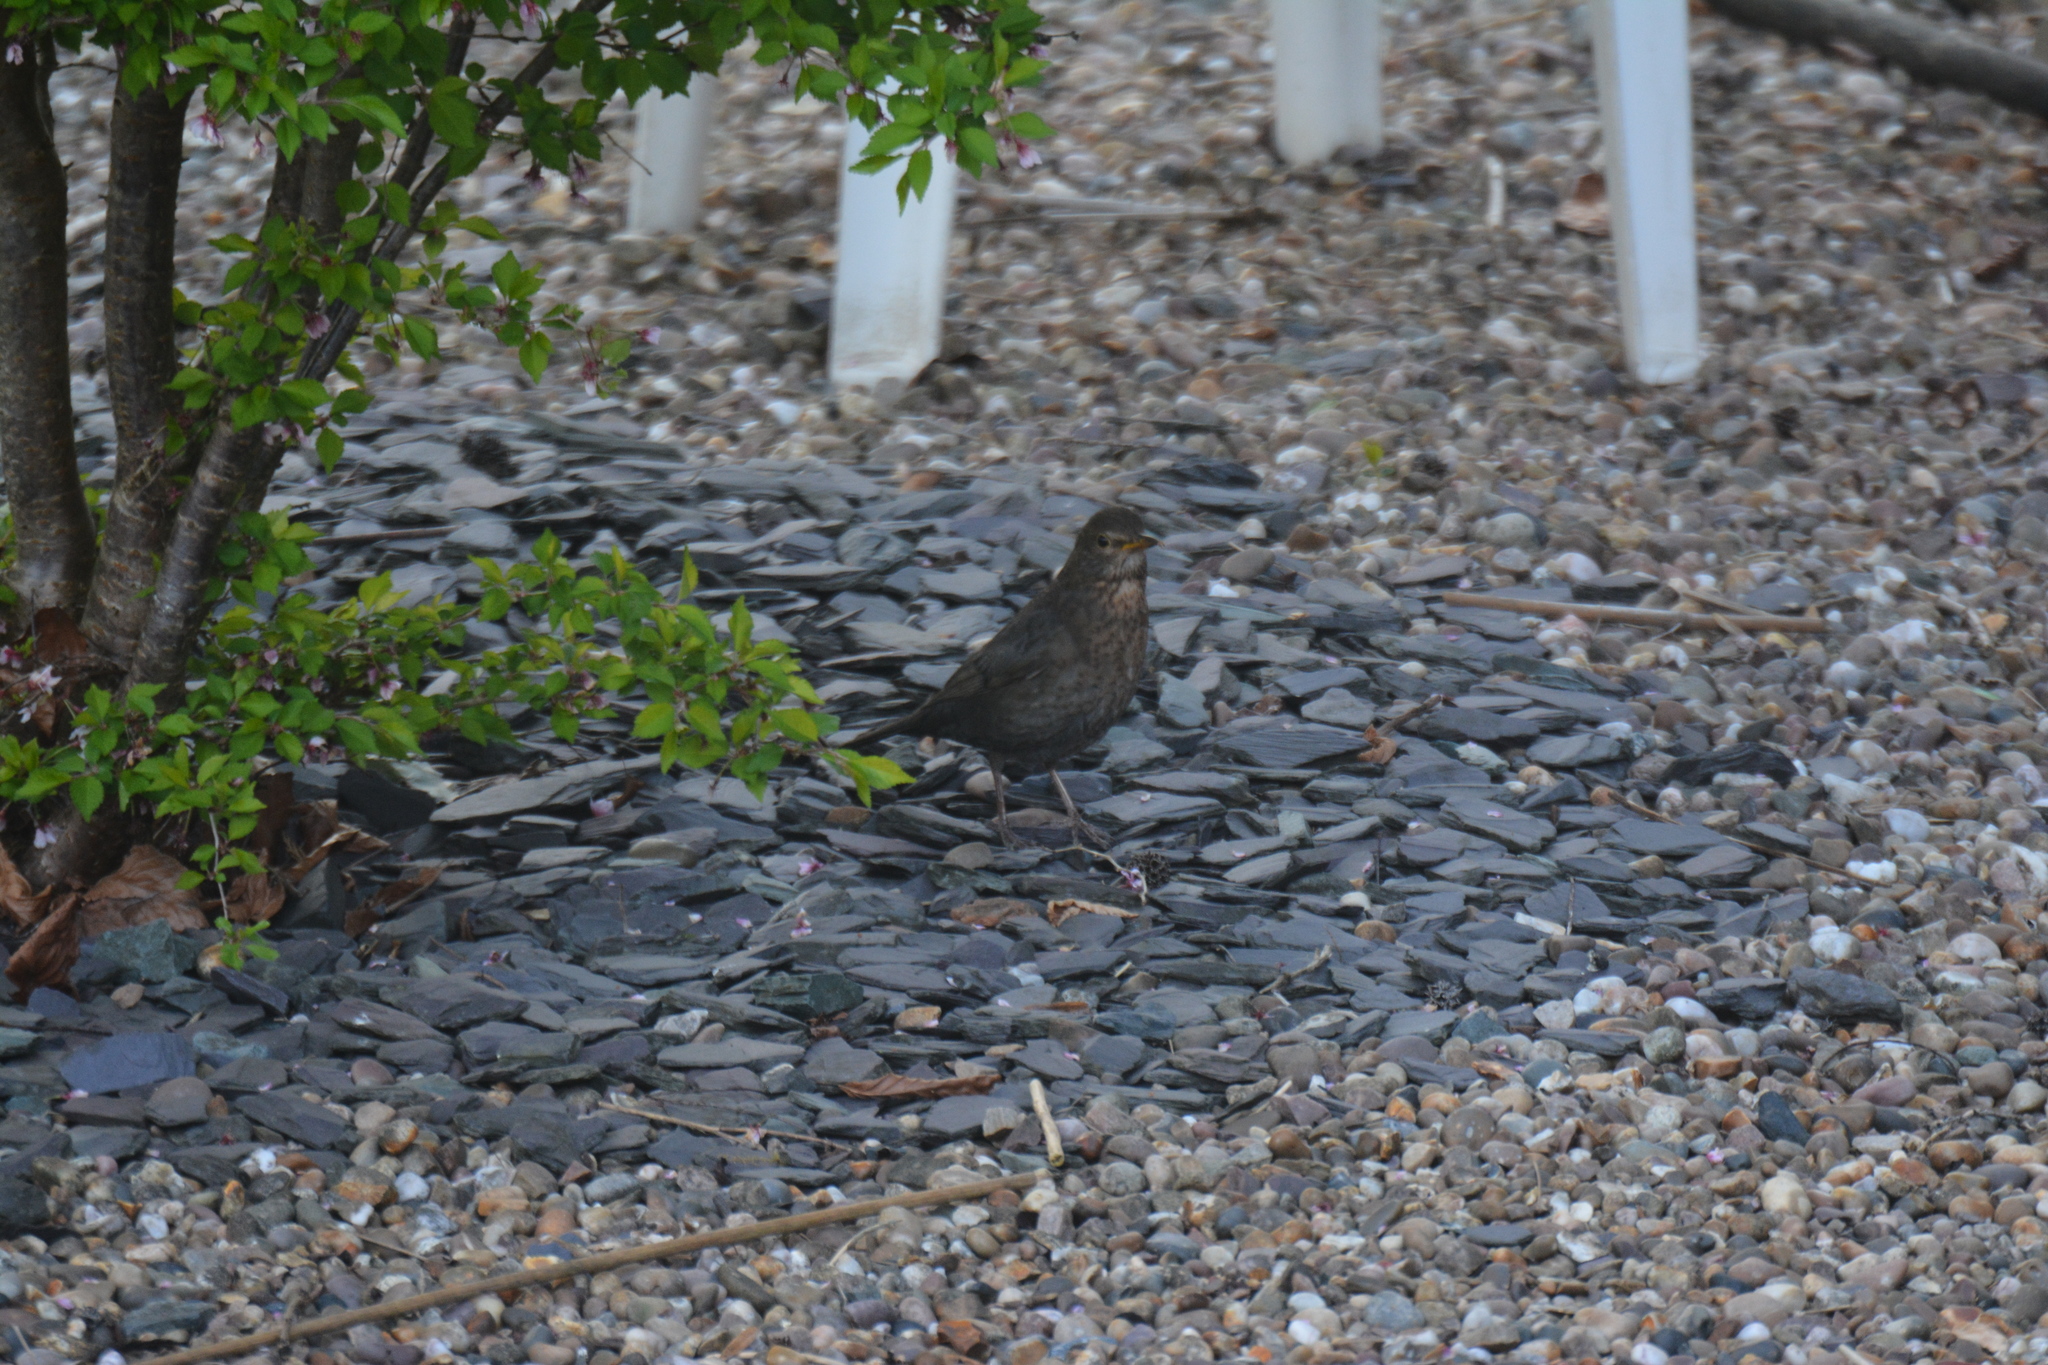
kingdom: Animalia
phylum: Chordata
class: Aves
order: Passeriformes
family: Turdidae
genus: Turdus
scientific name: Turdus merula
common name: Common blackbird
